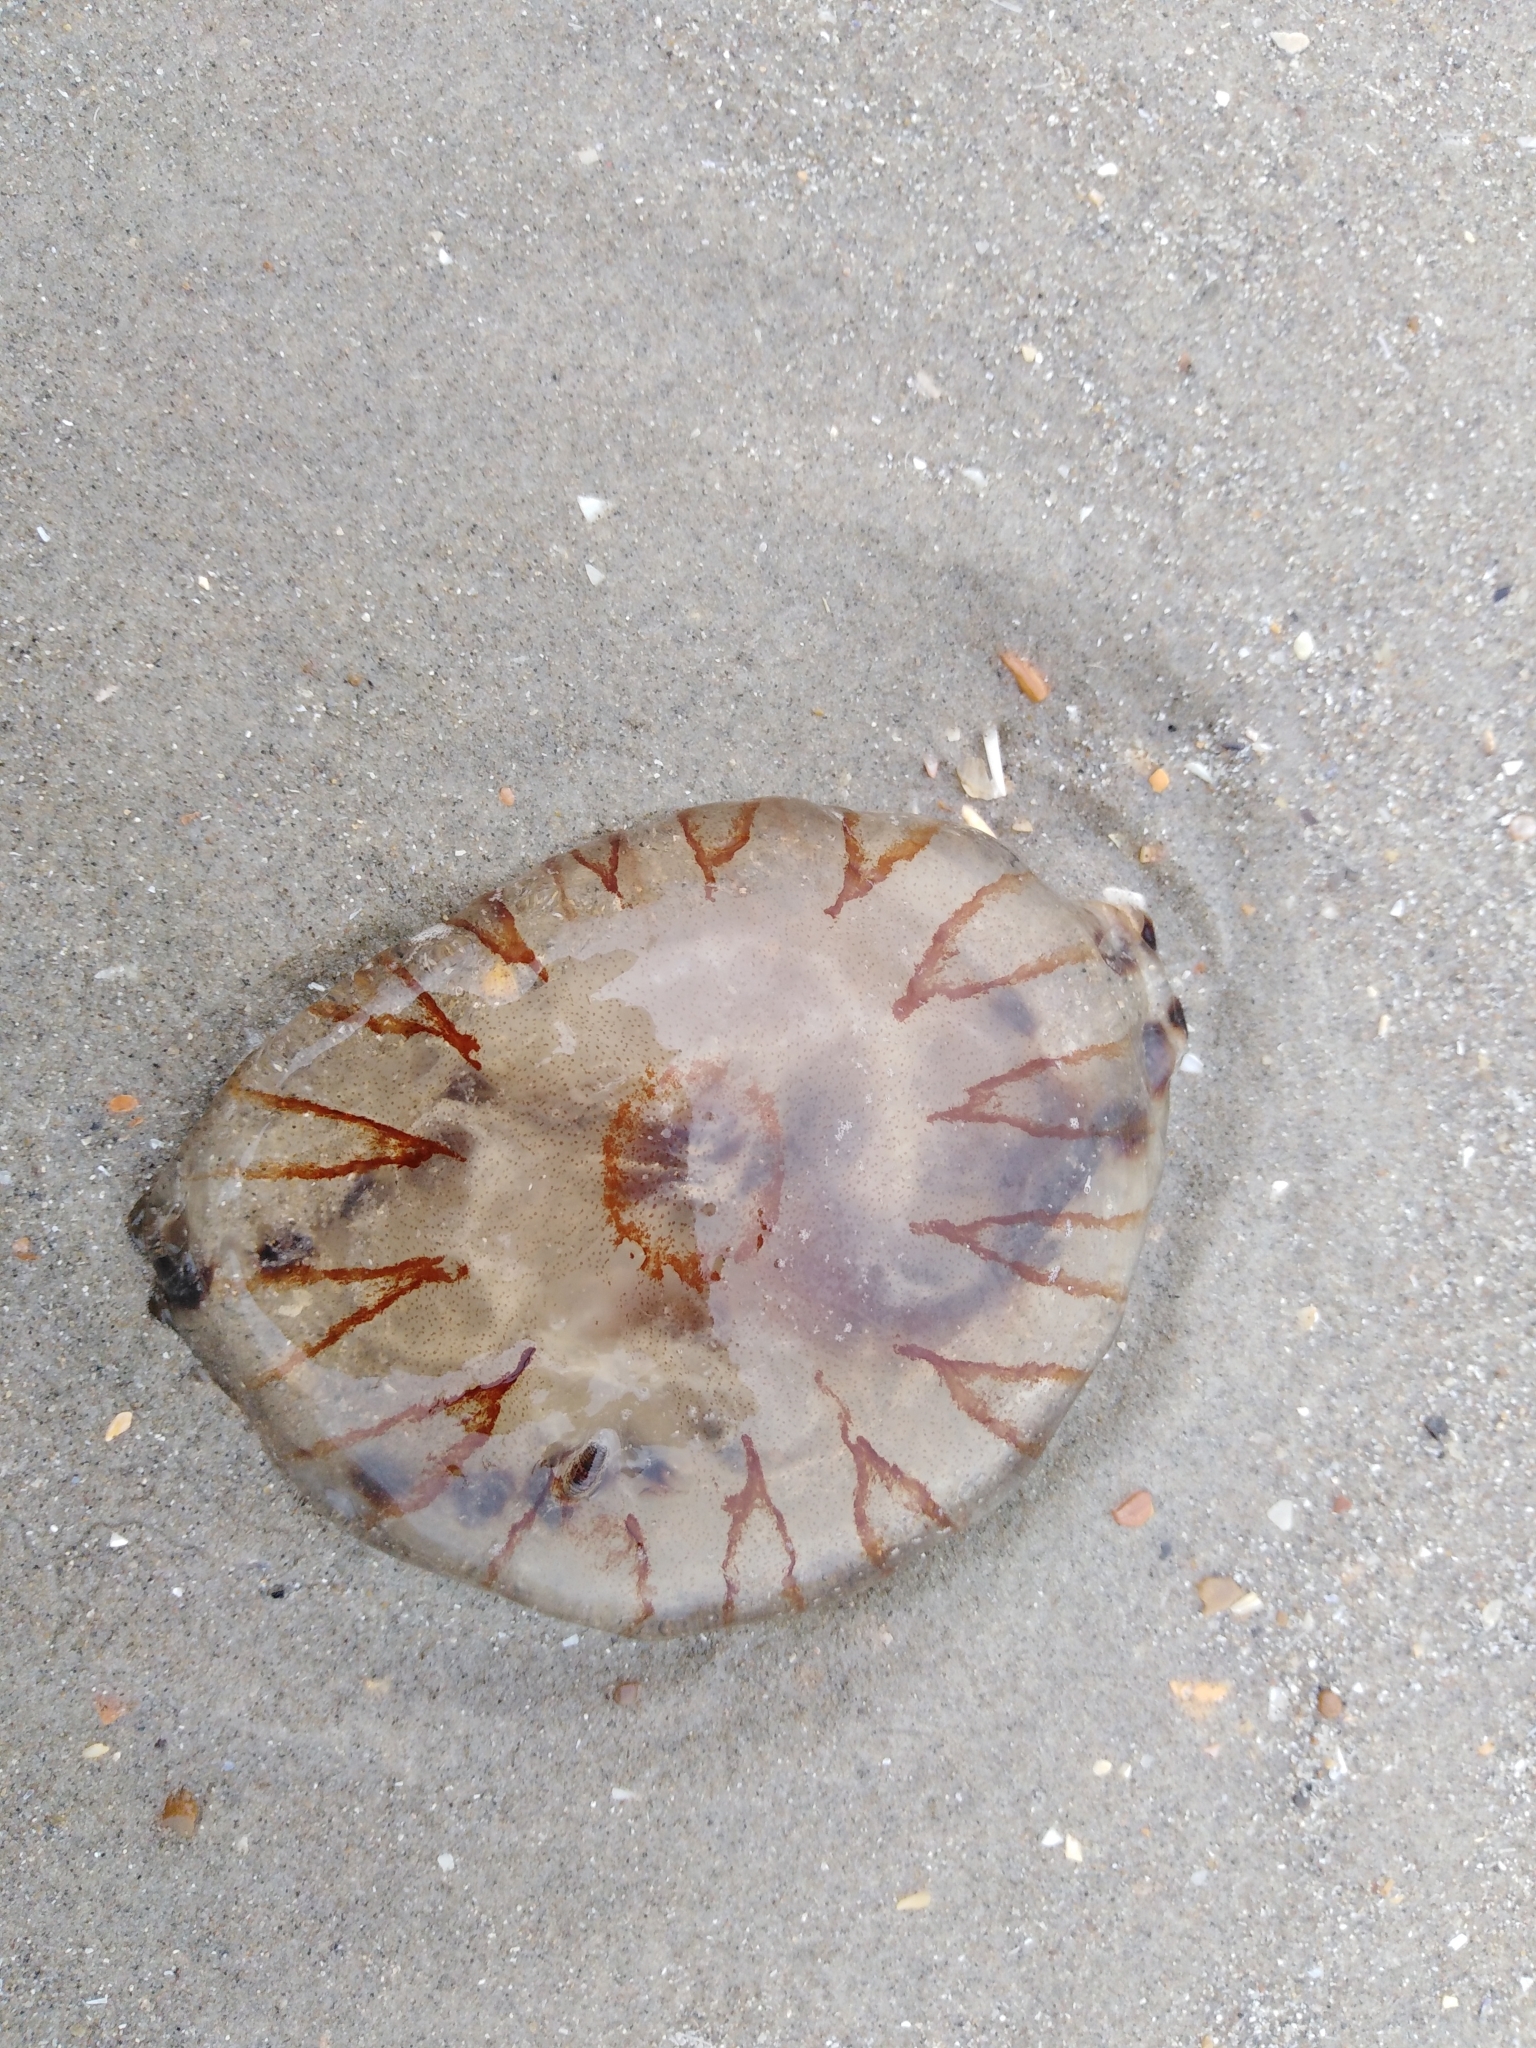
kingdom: Animalia
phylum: Cnidaria
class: Scyphozoa
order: Semaeostomeae
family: Pelagiidae
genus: Chrysaora
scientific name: Chrysaora hysoscella
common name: Compass jellyfish
